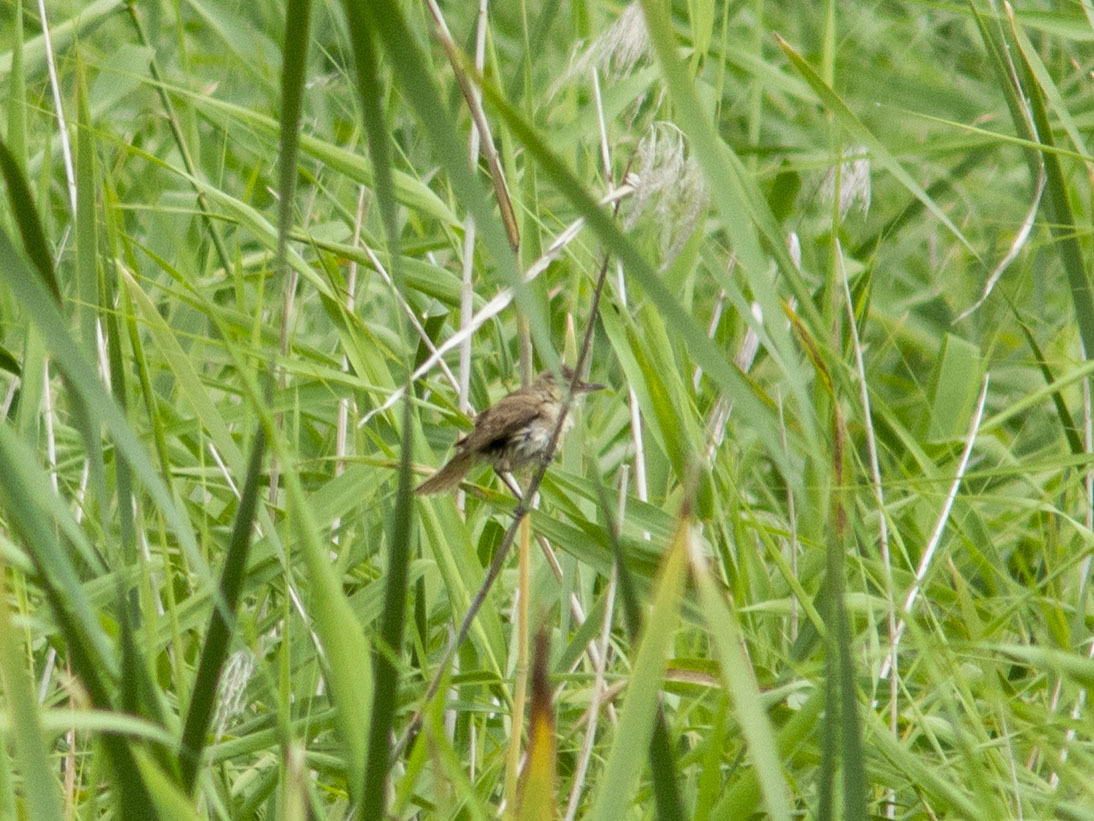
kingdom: Animalia
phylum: Chordata
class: Aves
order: Passeriformes
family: Acrocephalidae
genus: Acrocephalus
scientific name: Acrocephalus orientalis
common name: Oriental reed warbler
